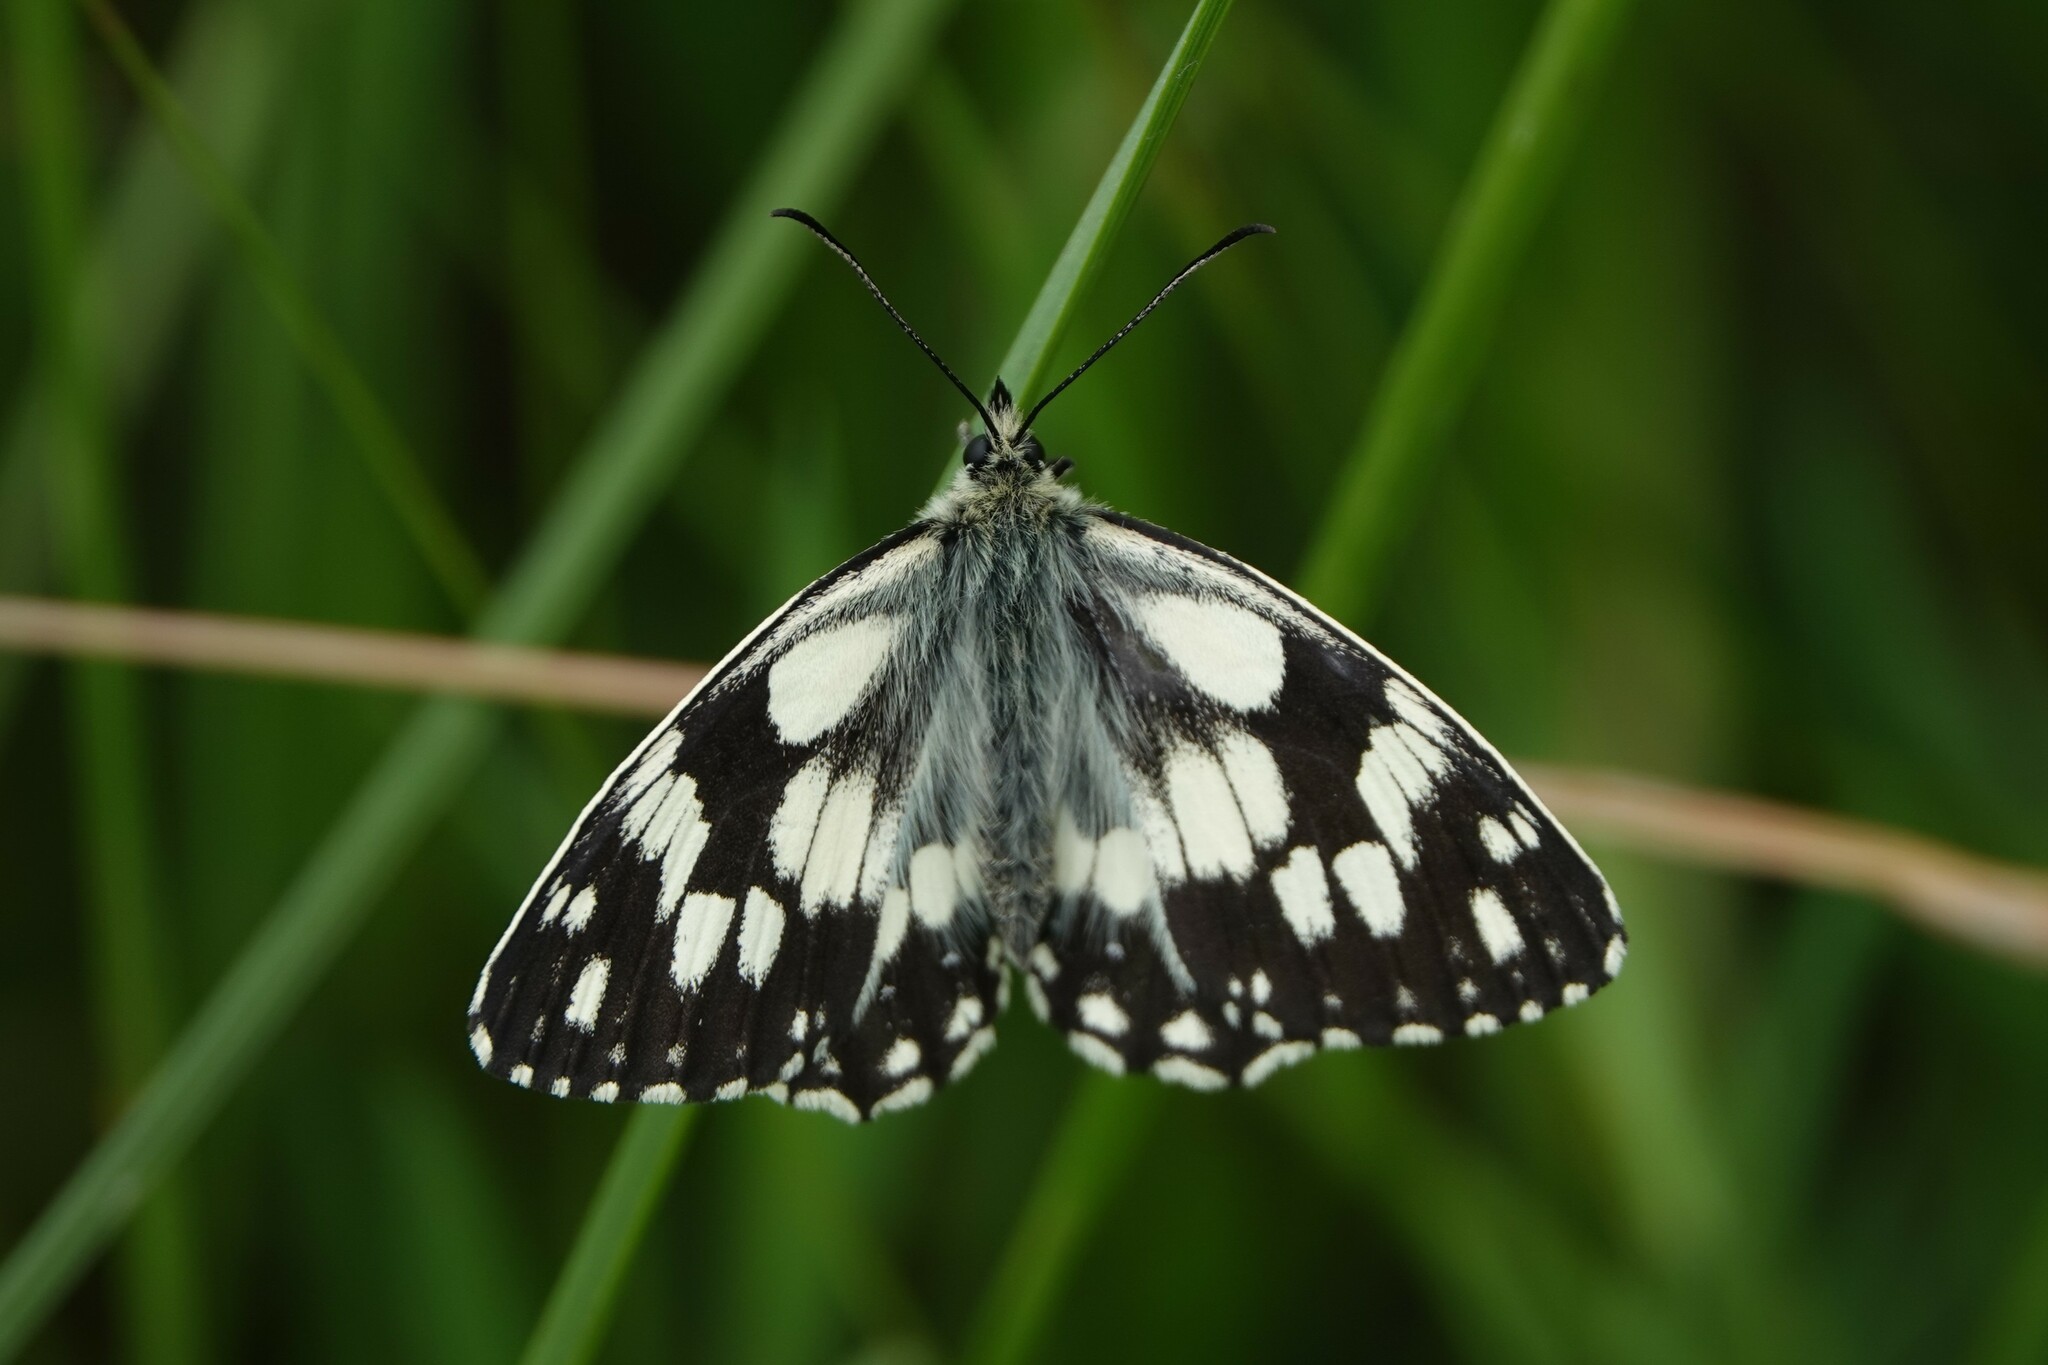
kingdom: Animalia
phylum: Arthropoda
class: Insecta
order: Lepidoptera
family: Nymphalidae
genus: Melanargia
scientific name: Melanargia galathea
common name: Marbled white
